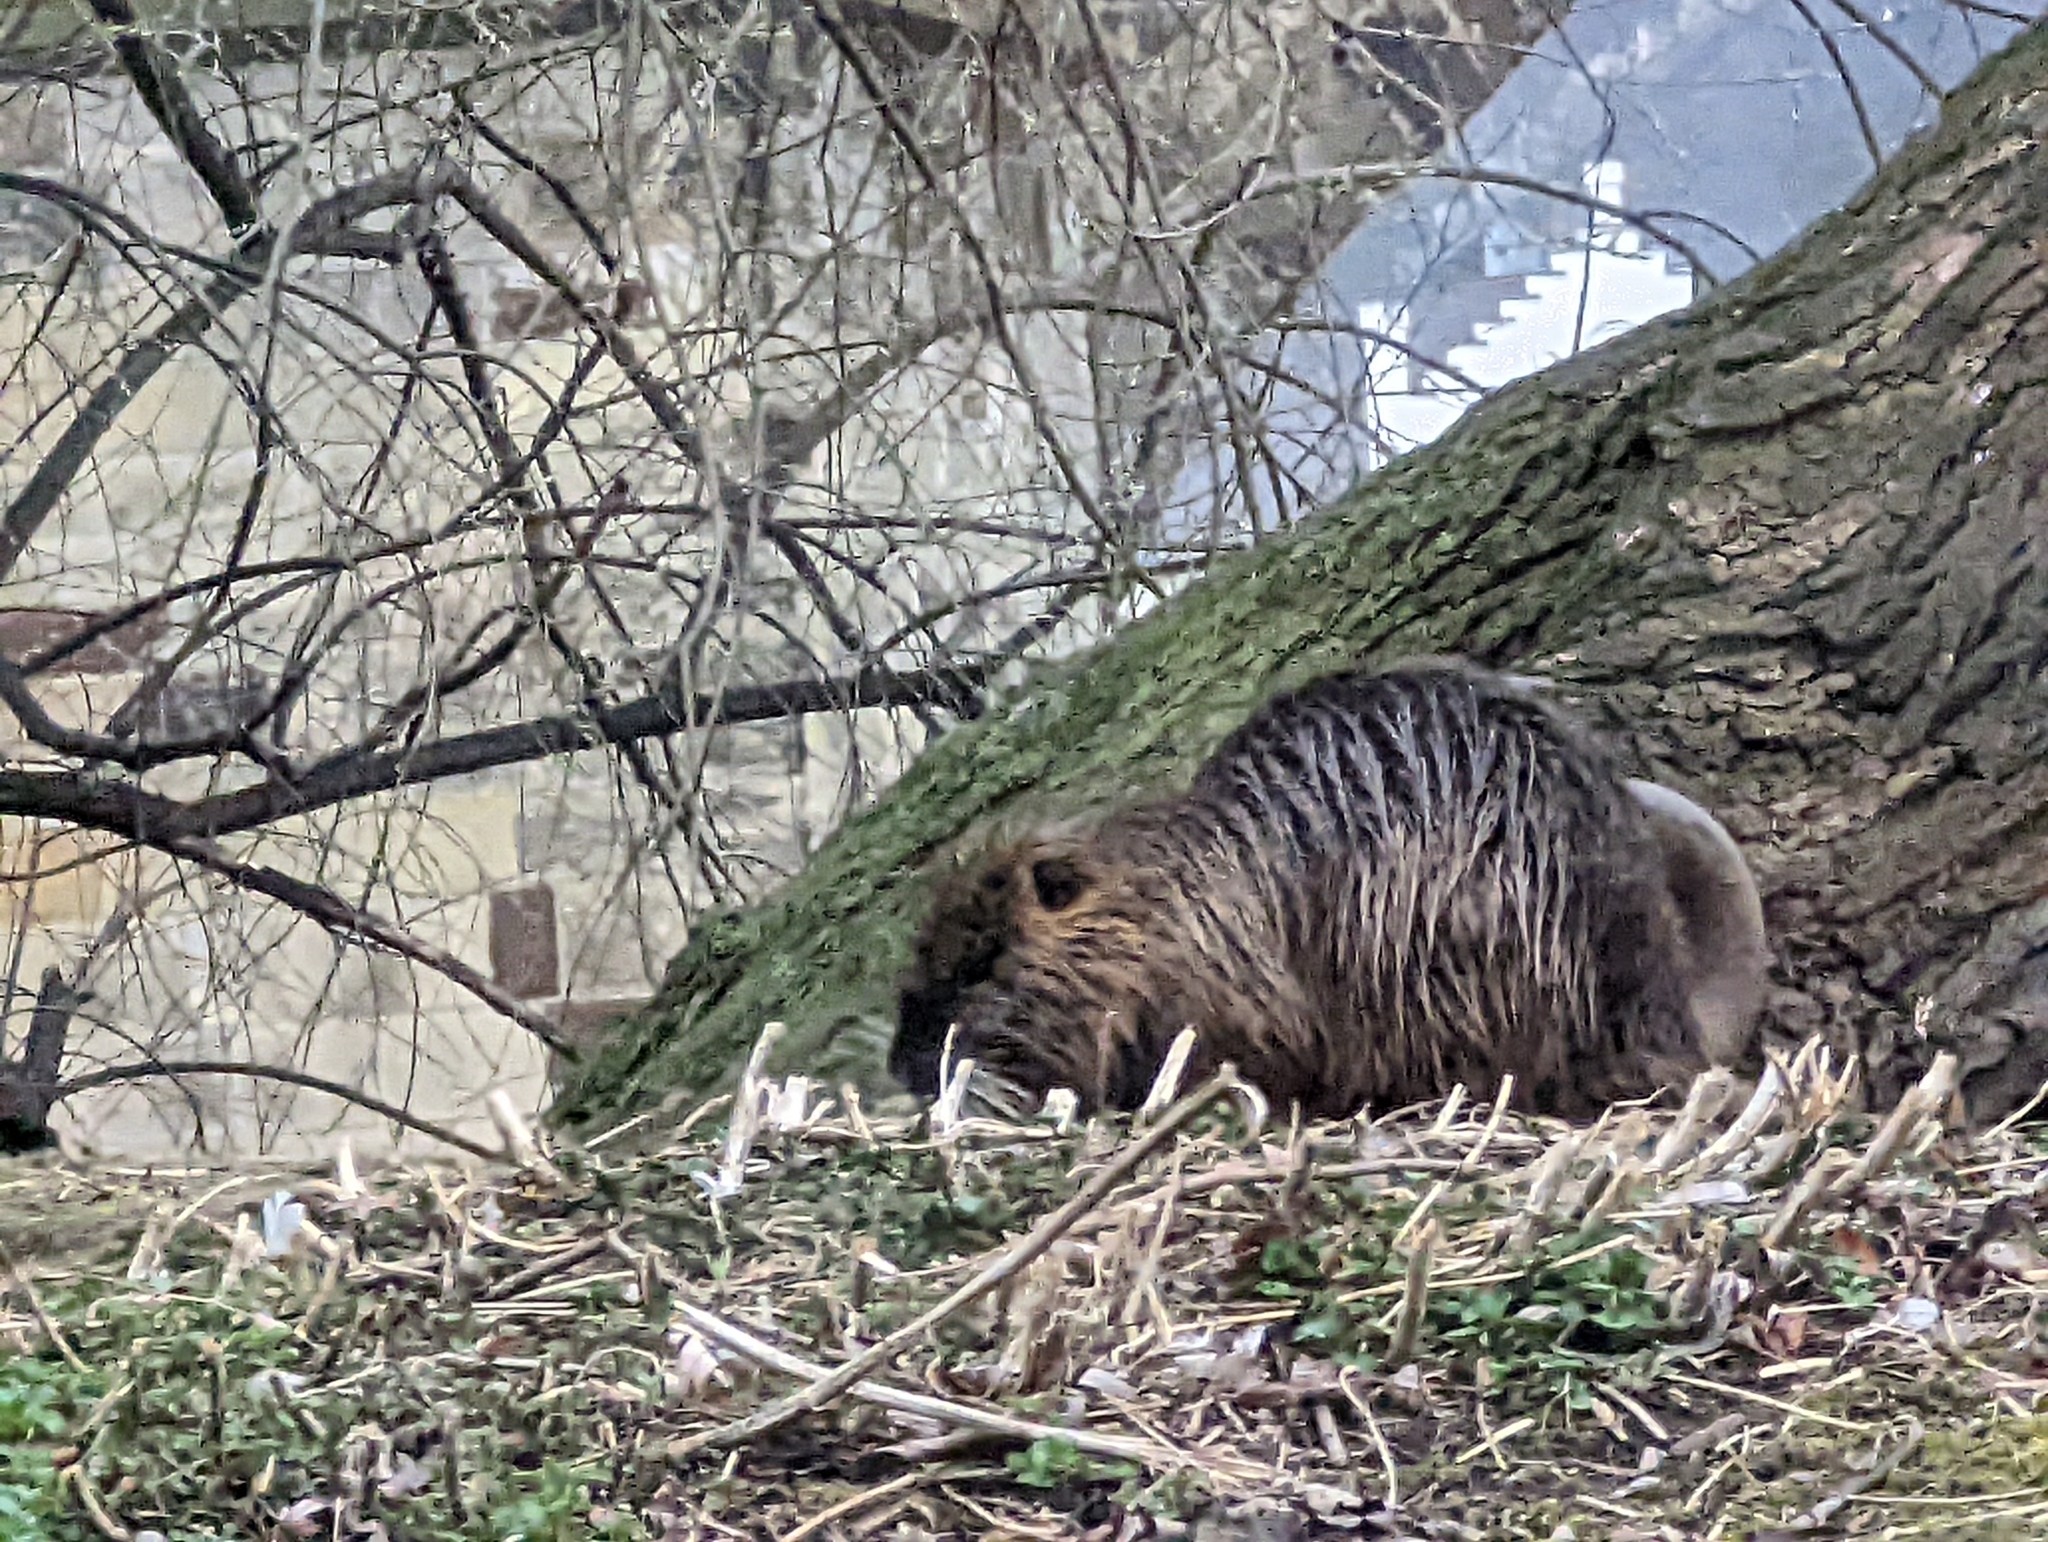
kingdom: Animalia
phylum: Chordata
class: Mammalia
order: Rodentia
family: Myocastoridae
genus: Myocastor
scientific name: Myocastor coypus
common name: Coypu
